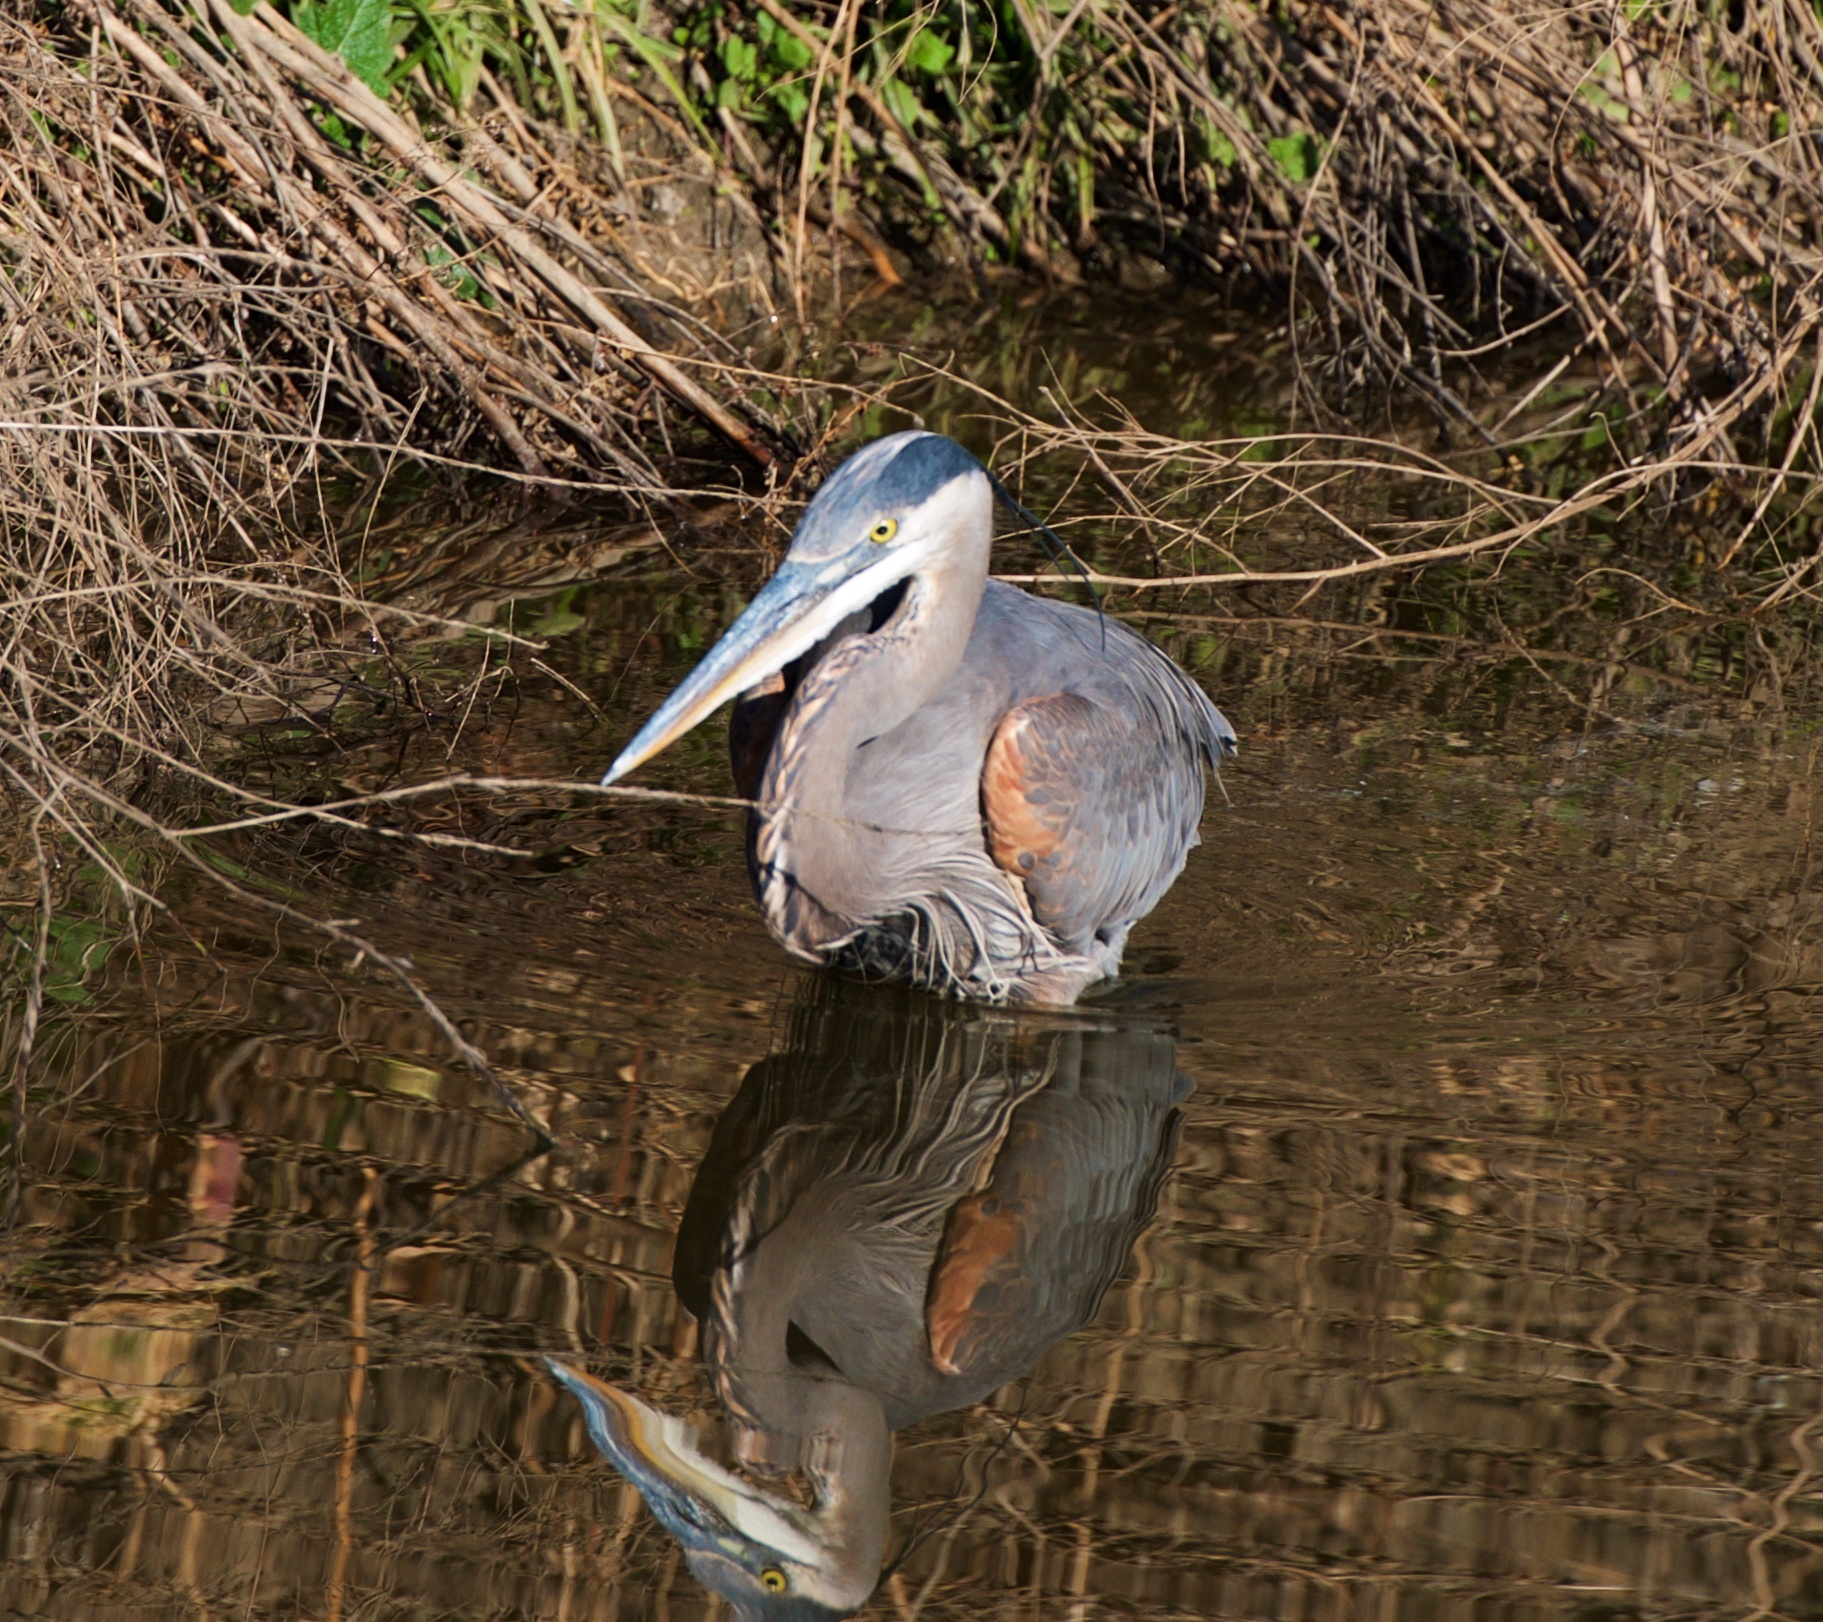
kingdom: Animalia
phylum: Chordata
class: Aves
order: Pelecaniformes
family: Ardeidae
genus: Ardea
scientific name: Ardea herodias
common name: Great blue heron
